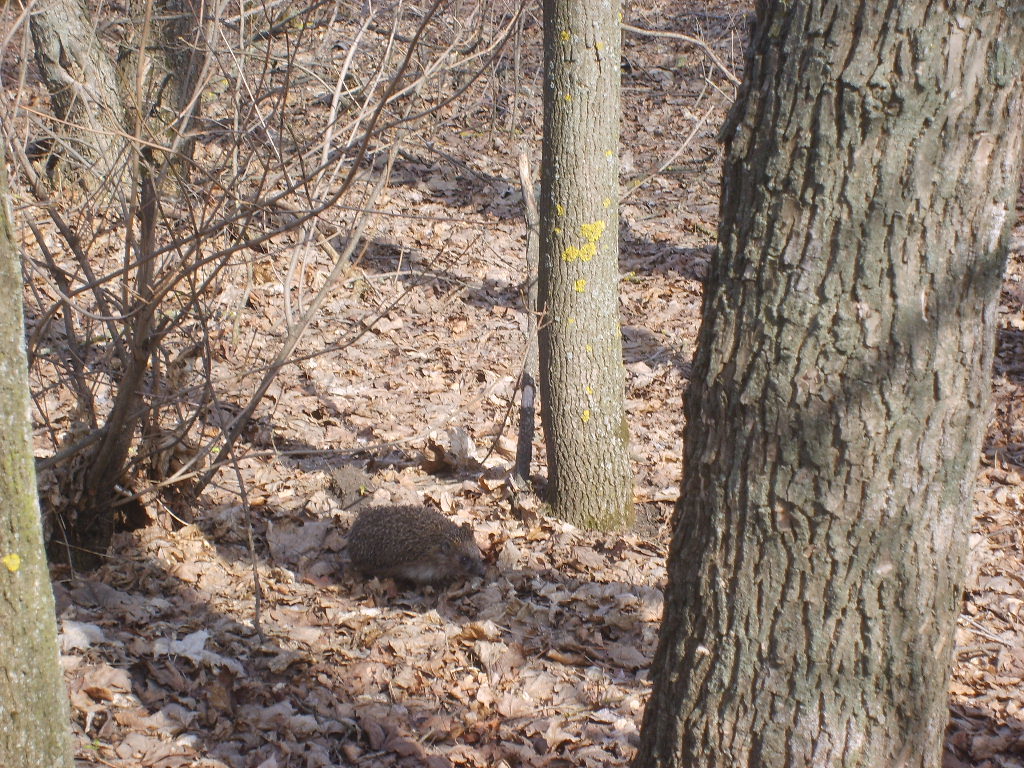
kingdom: Animalia
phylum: Chordata
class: Mammalia
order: Erinaceomorpha
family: Erinaceidae
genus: Erinaceus
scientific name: Erinaceus roumanicus
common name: Northern white-breasted hedgehog
